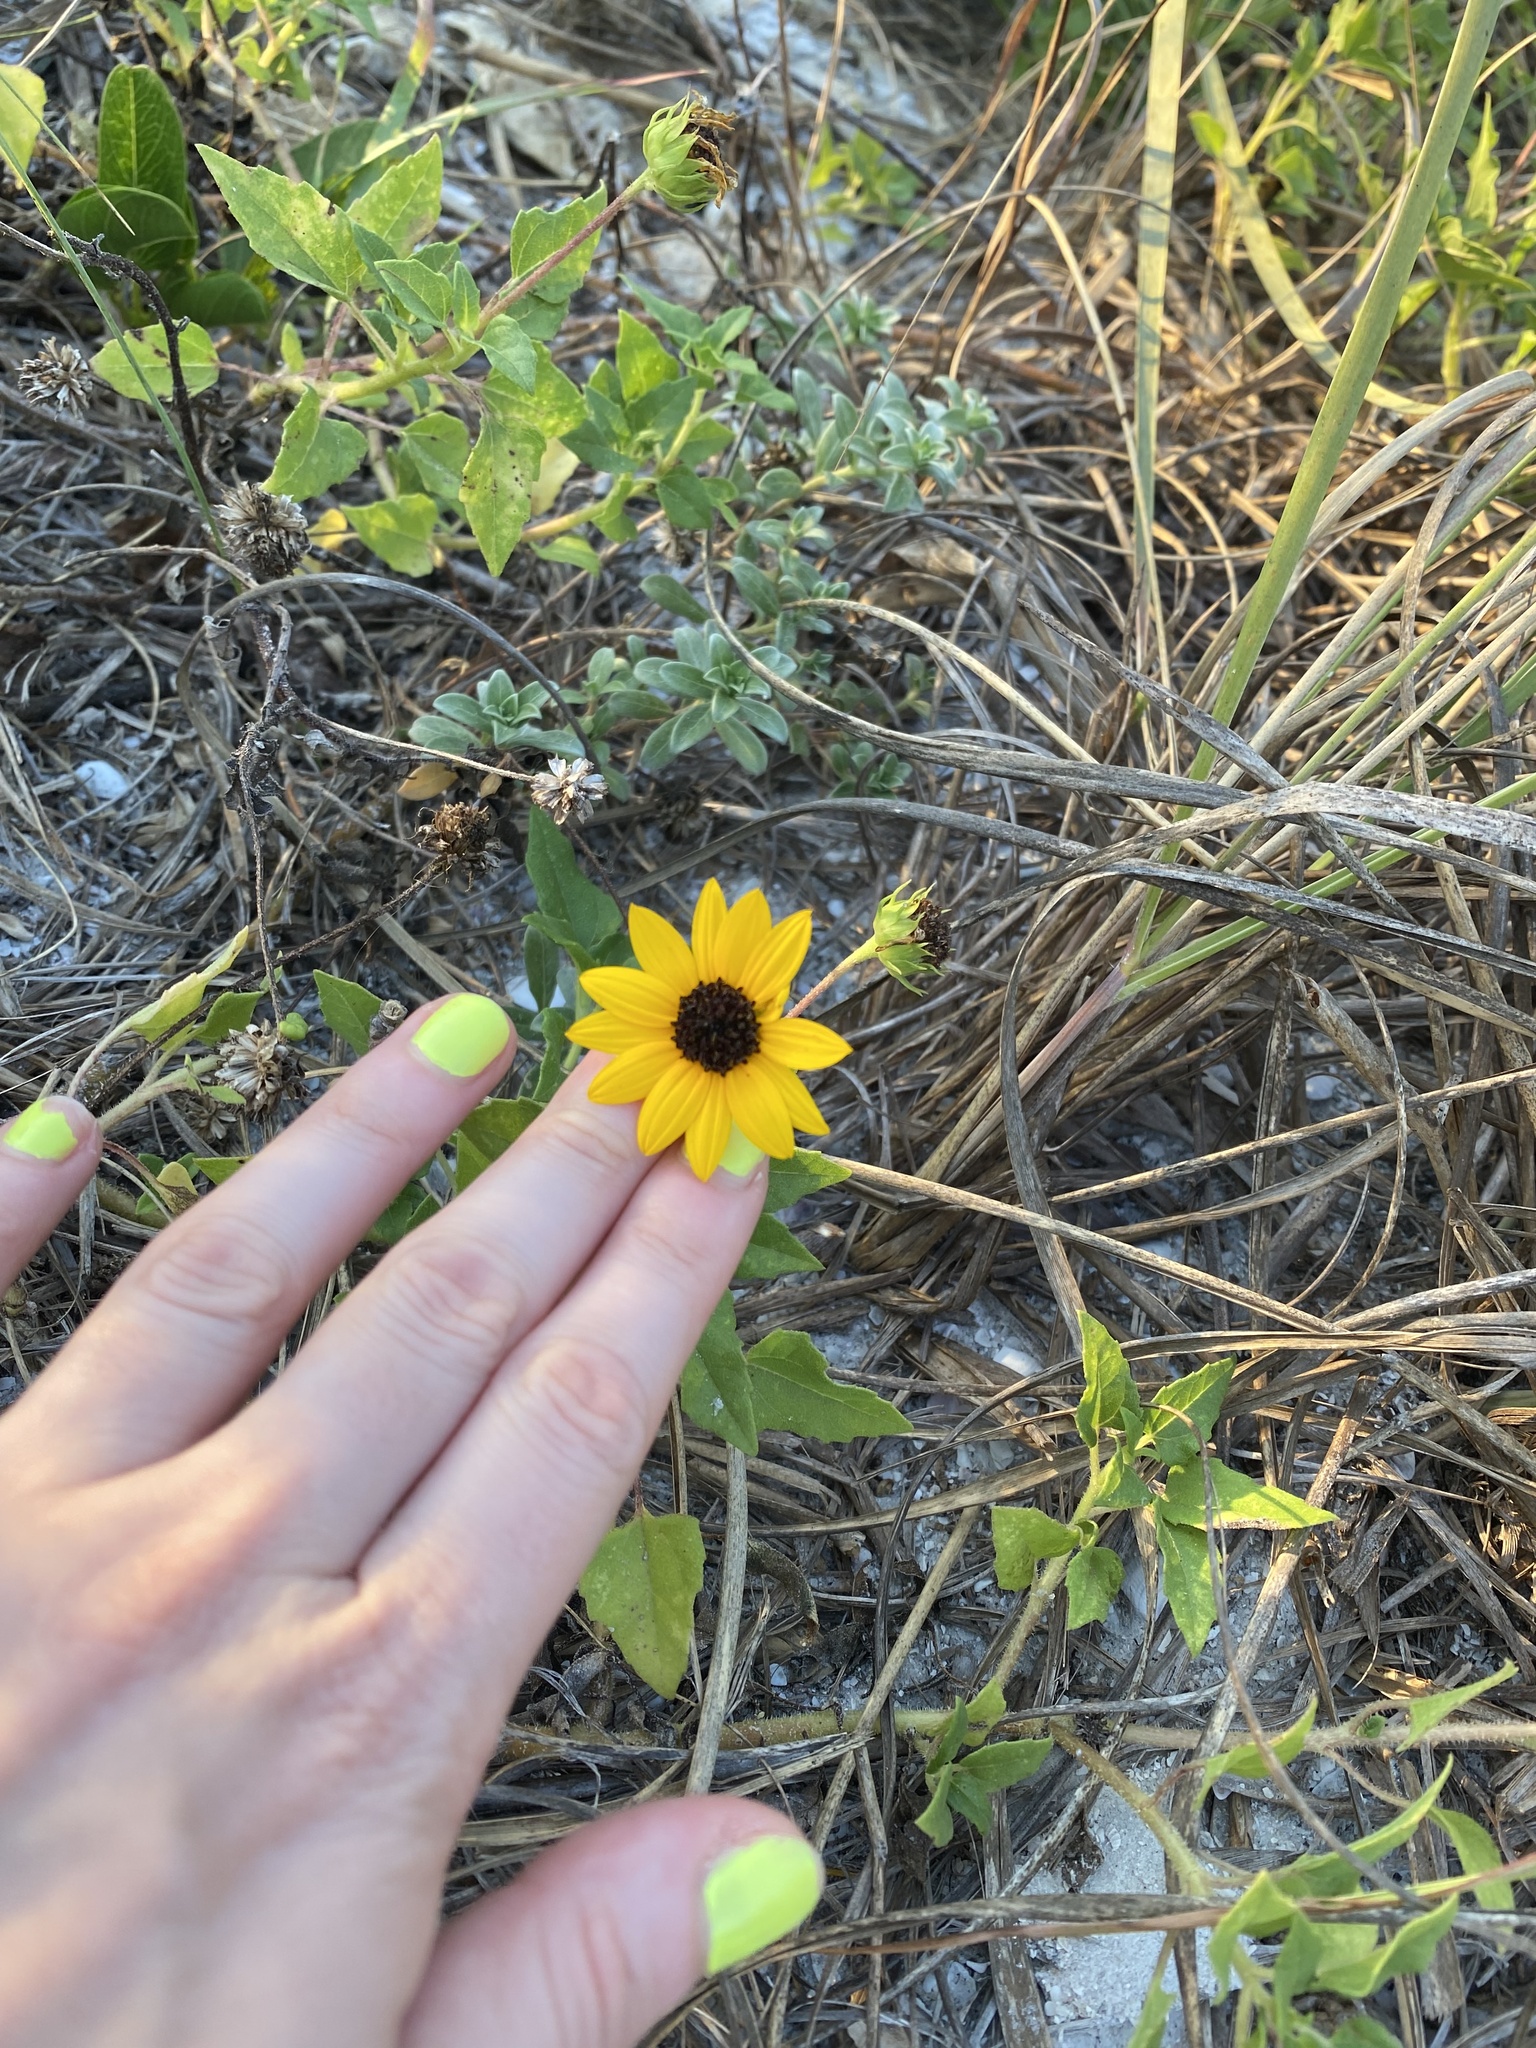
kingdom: Plantae
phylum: Tracheophyta
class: Magnoliopsida
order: Asterales
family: Asteraceae
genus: Helianthus
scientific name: Helianthus debilis
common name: Weak sunflower
